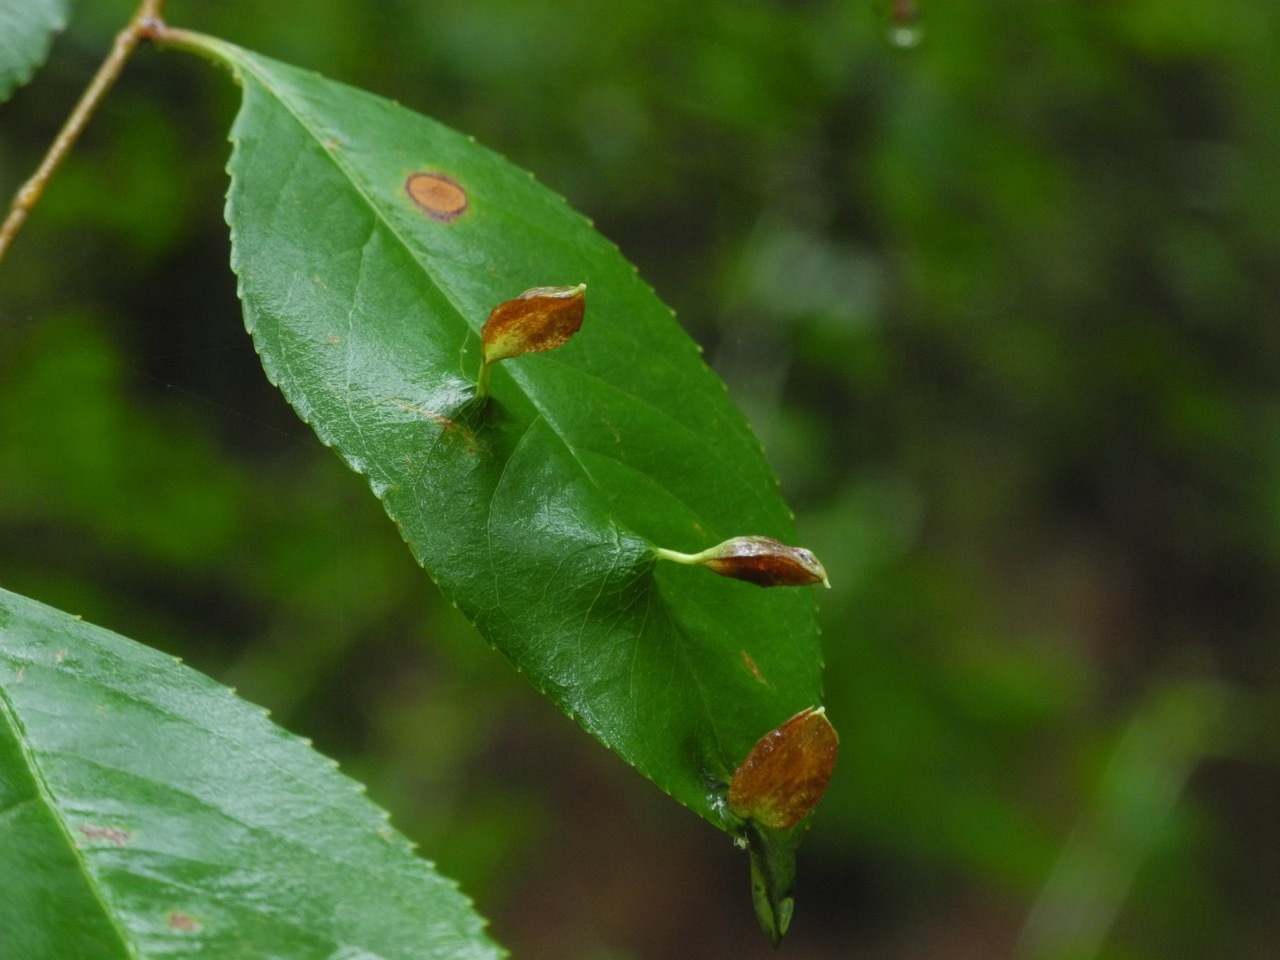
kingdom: Animalia
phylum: Arthropoda
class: Arachnida
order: Trombidiformes
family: Eriophyidae
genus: Eriophyes
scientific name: Eriophyes
